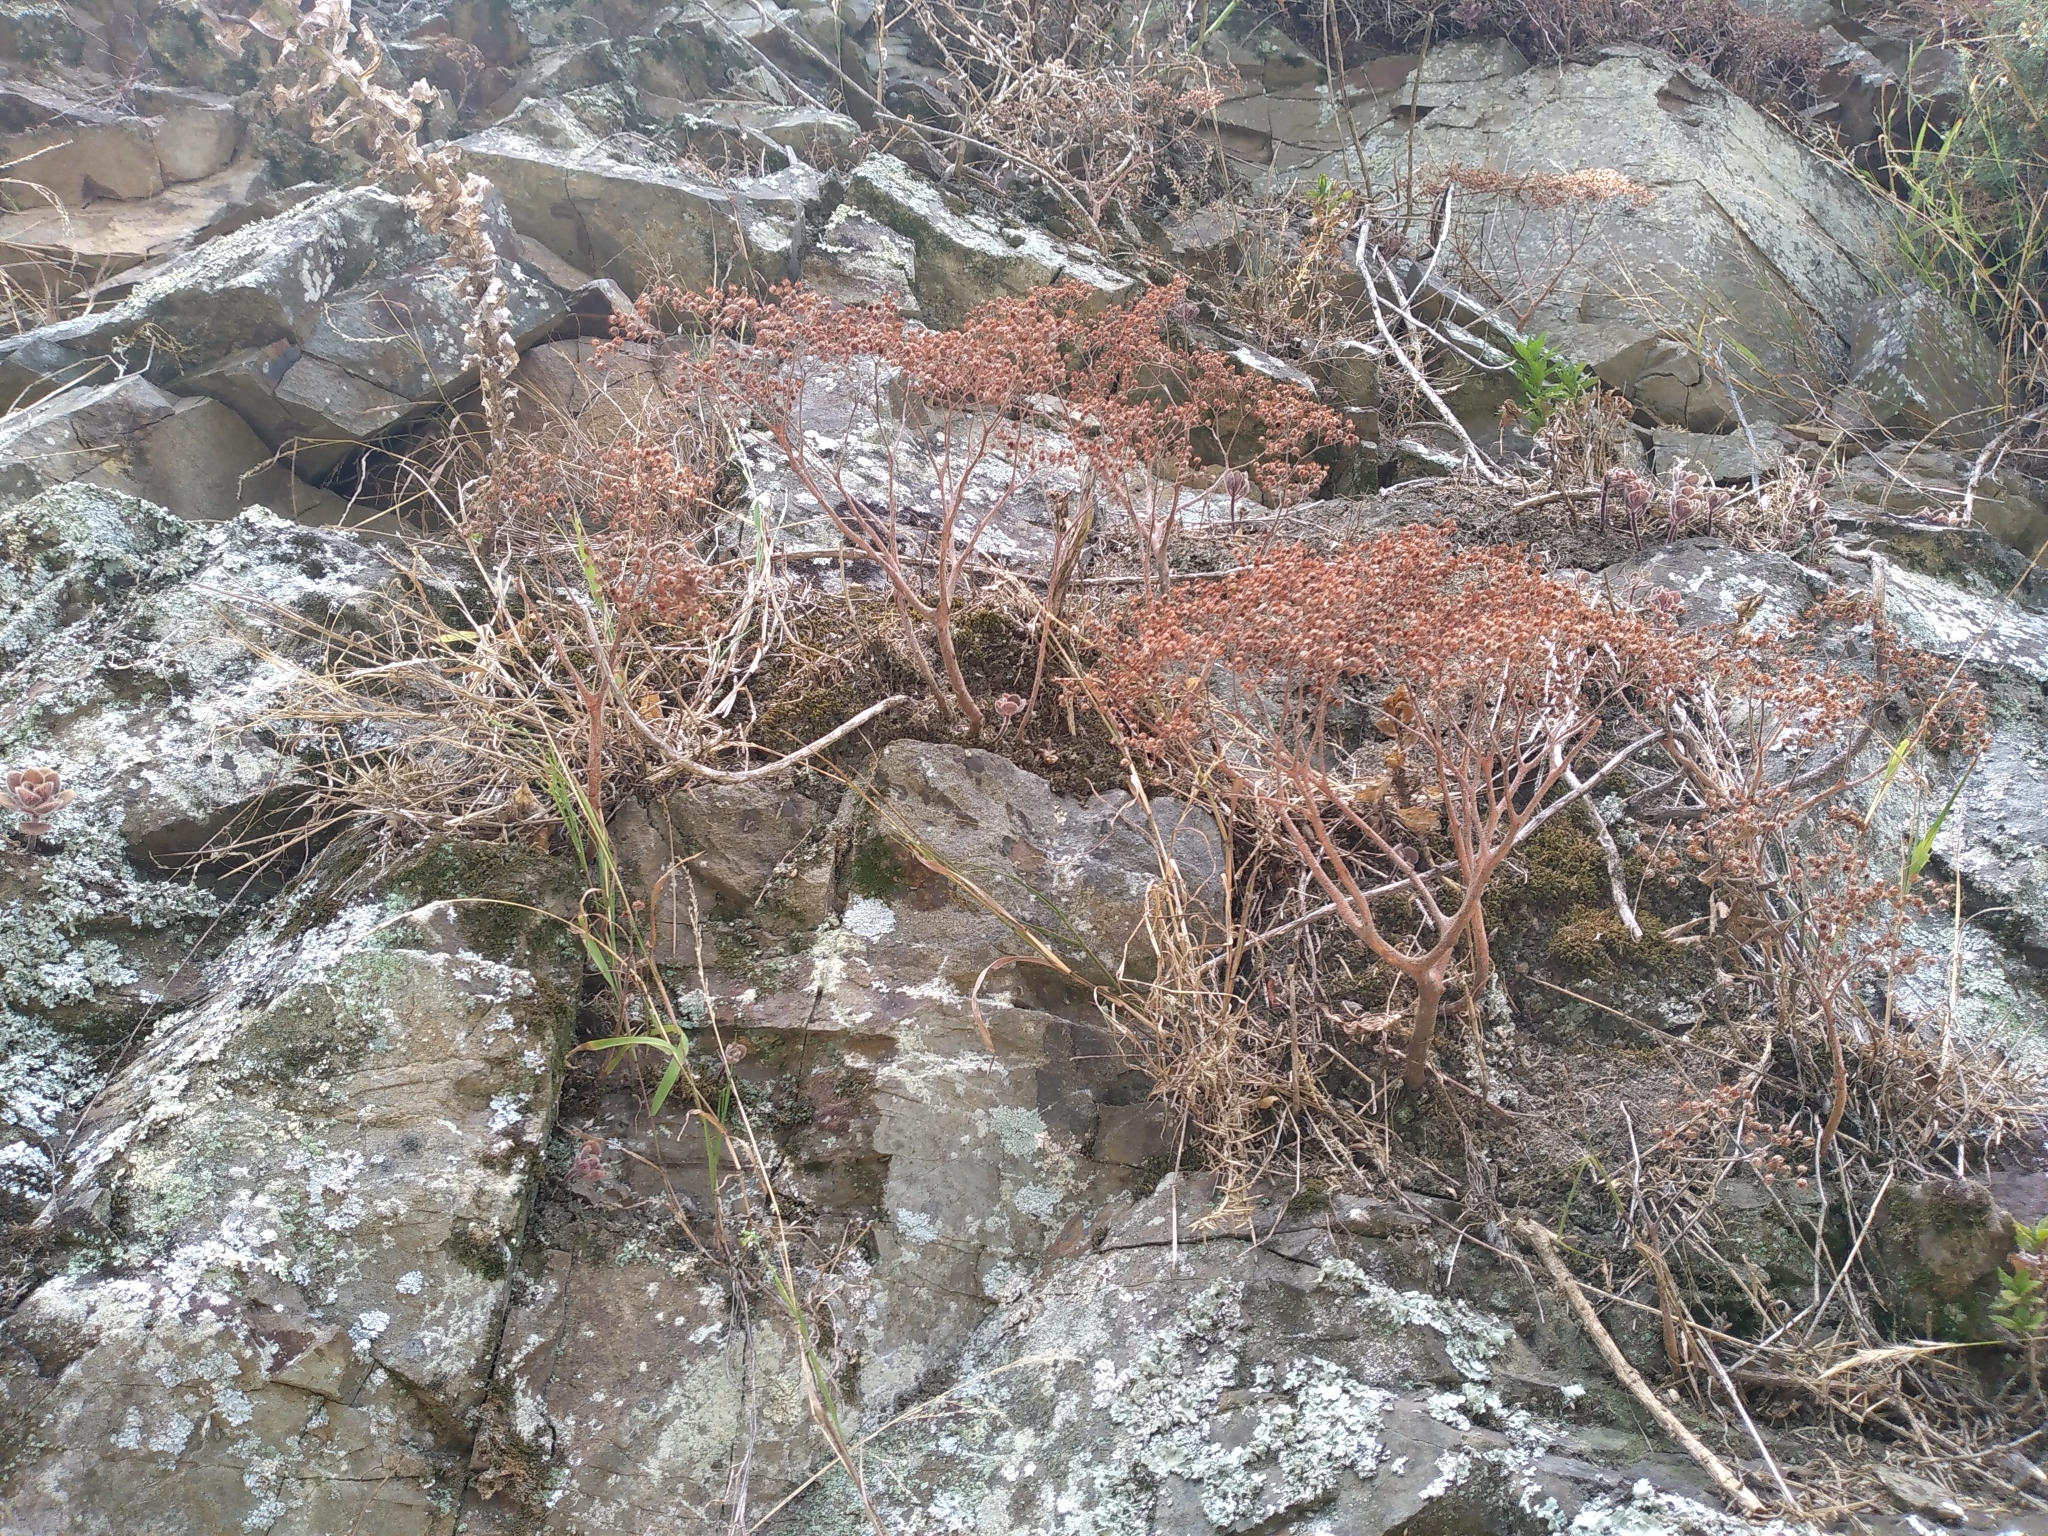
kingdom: Plantae
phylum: Tracheophyta
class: Magnoliopsida
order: Saxifragales
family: Crassulaceae
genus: Aichryson
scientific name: Aichryson laxum
